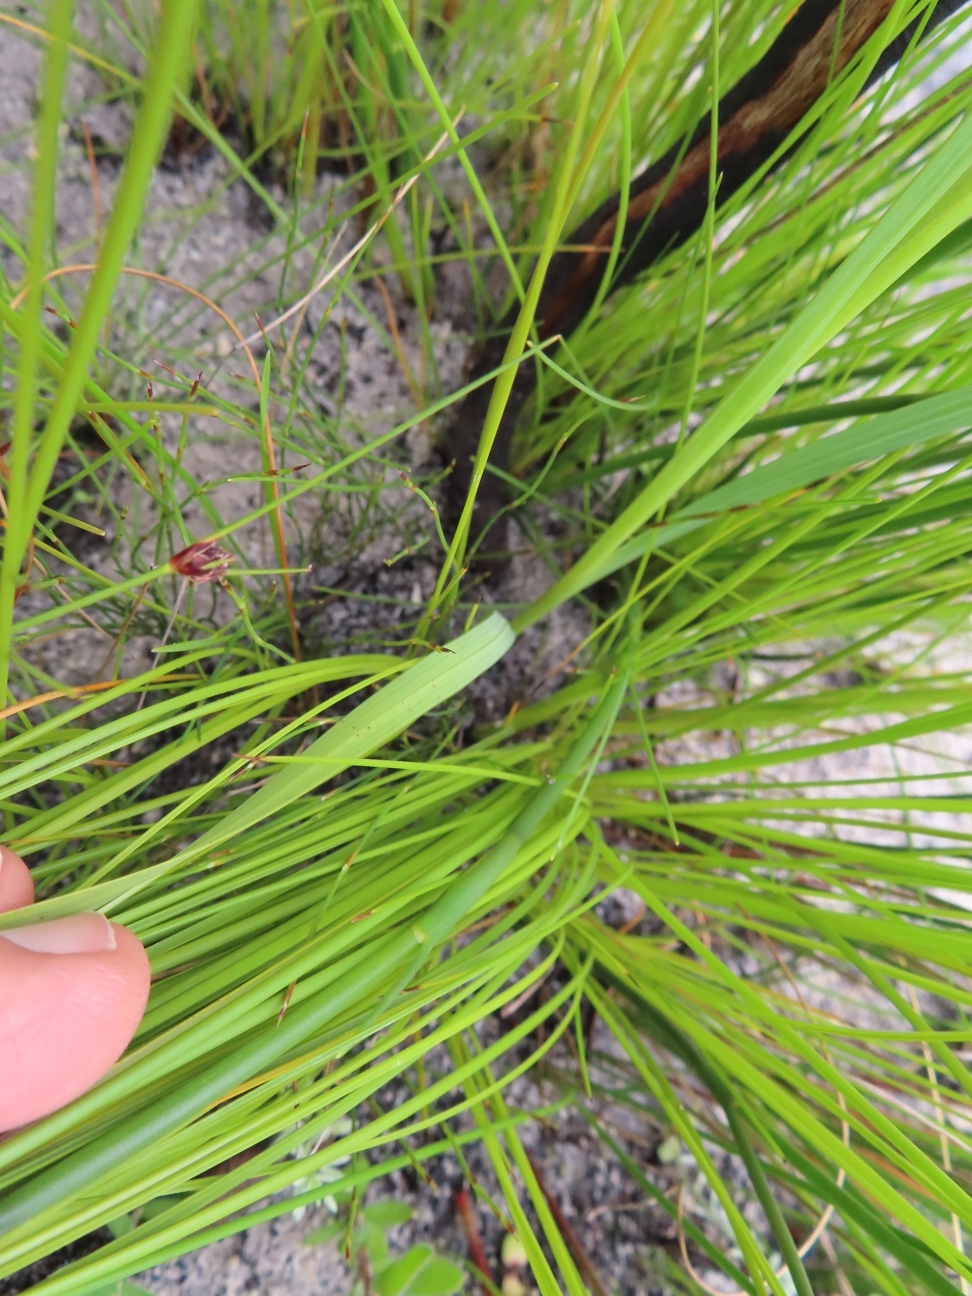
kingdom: Plantae
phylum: Tracheophyta
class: Liliopsida
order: Asparagales
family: Iridaceae
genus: Gladiolus
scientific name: Gladiolus carneus
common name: Painted-lady
